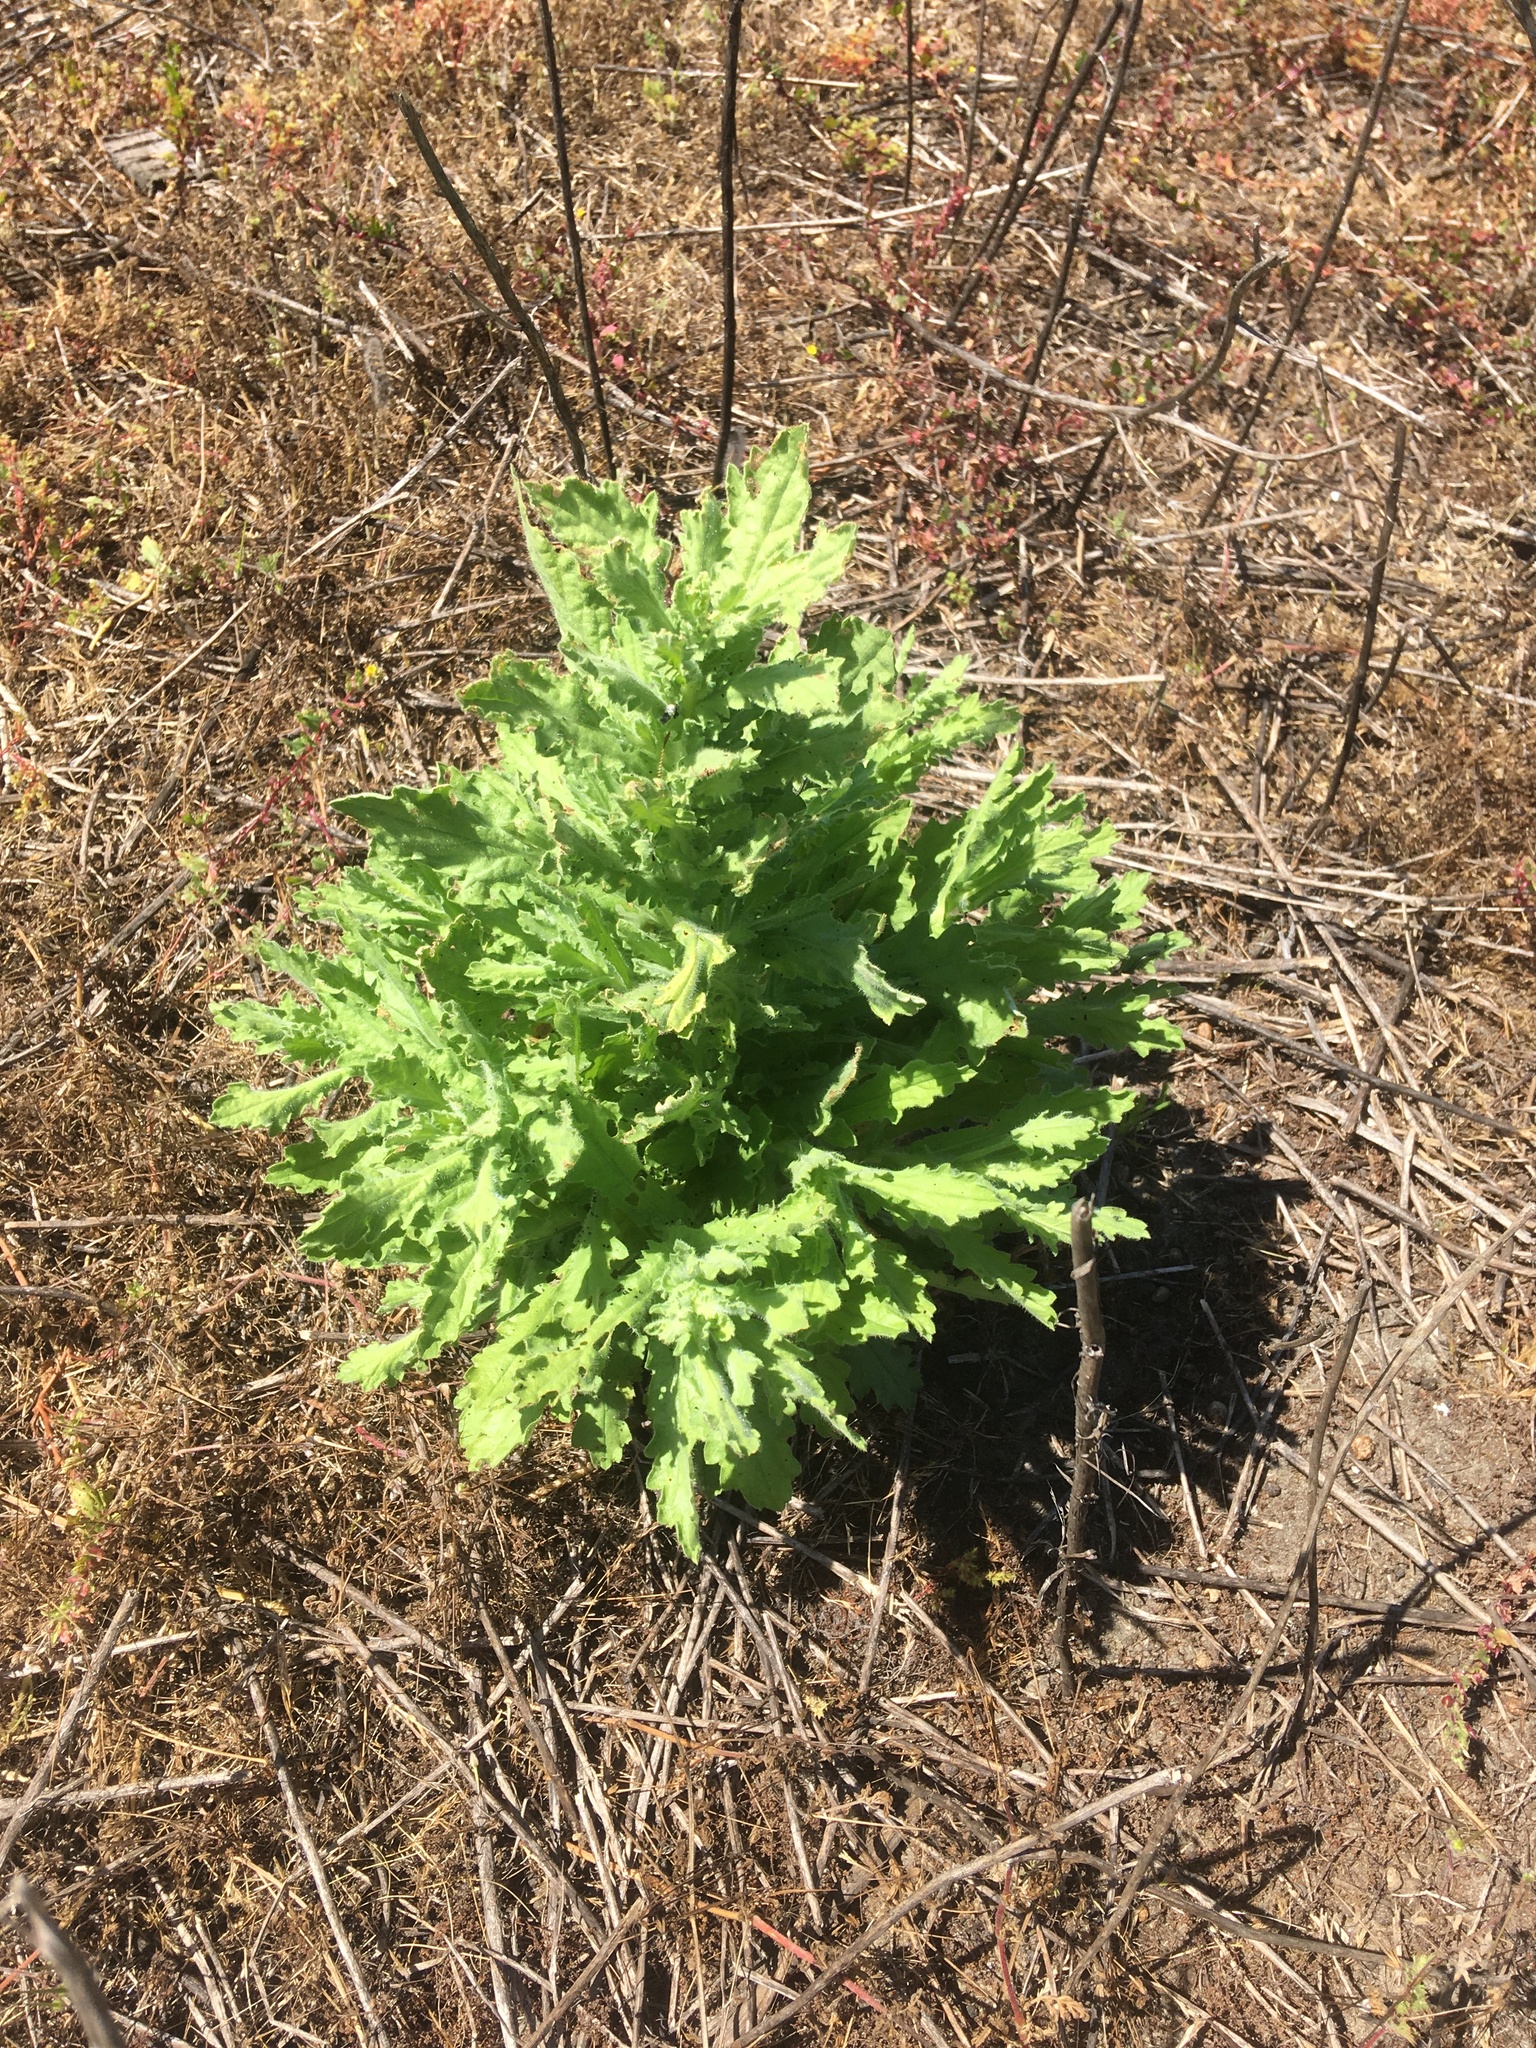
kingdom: Plantae
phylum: Tracheophyta
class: Magnoliopsida
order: Asterales
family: Asteraceae
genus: Laennecia
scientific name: Laennecia coulteri
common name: Coulter's woolwort
